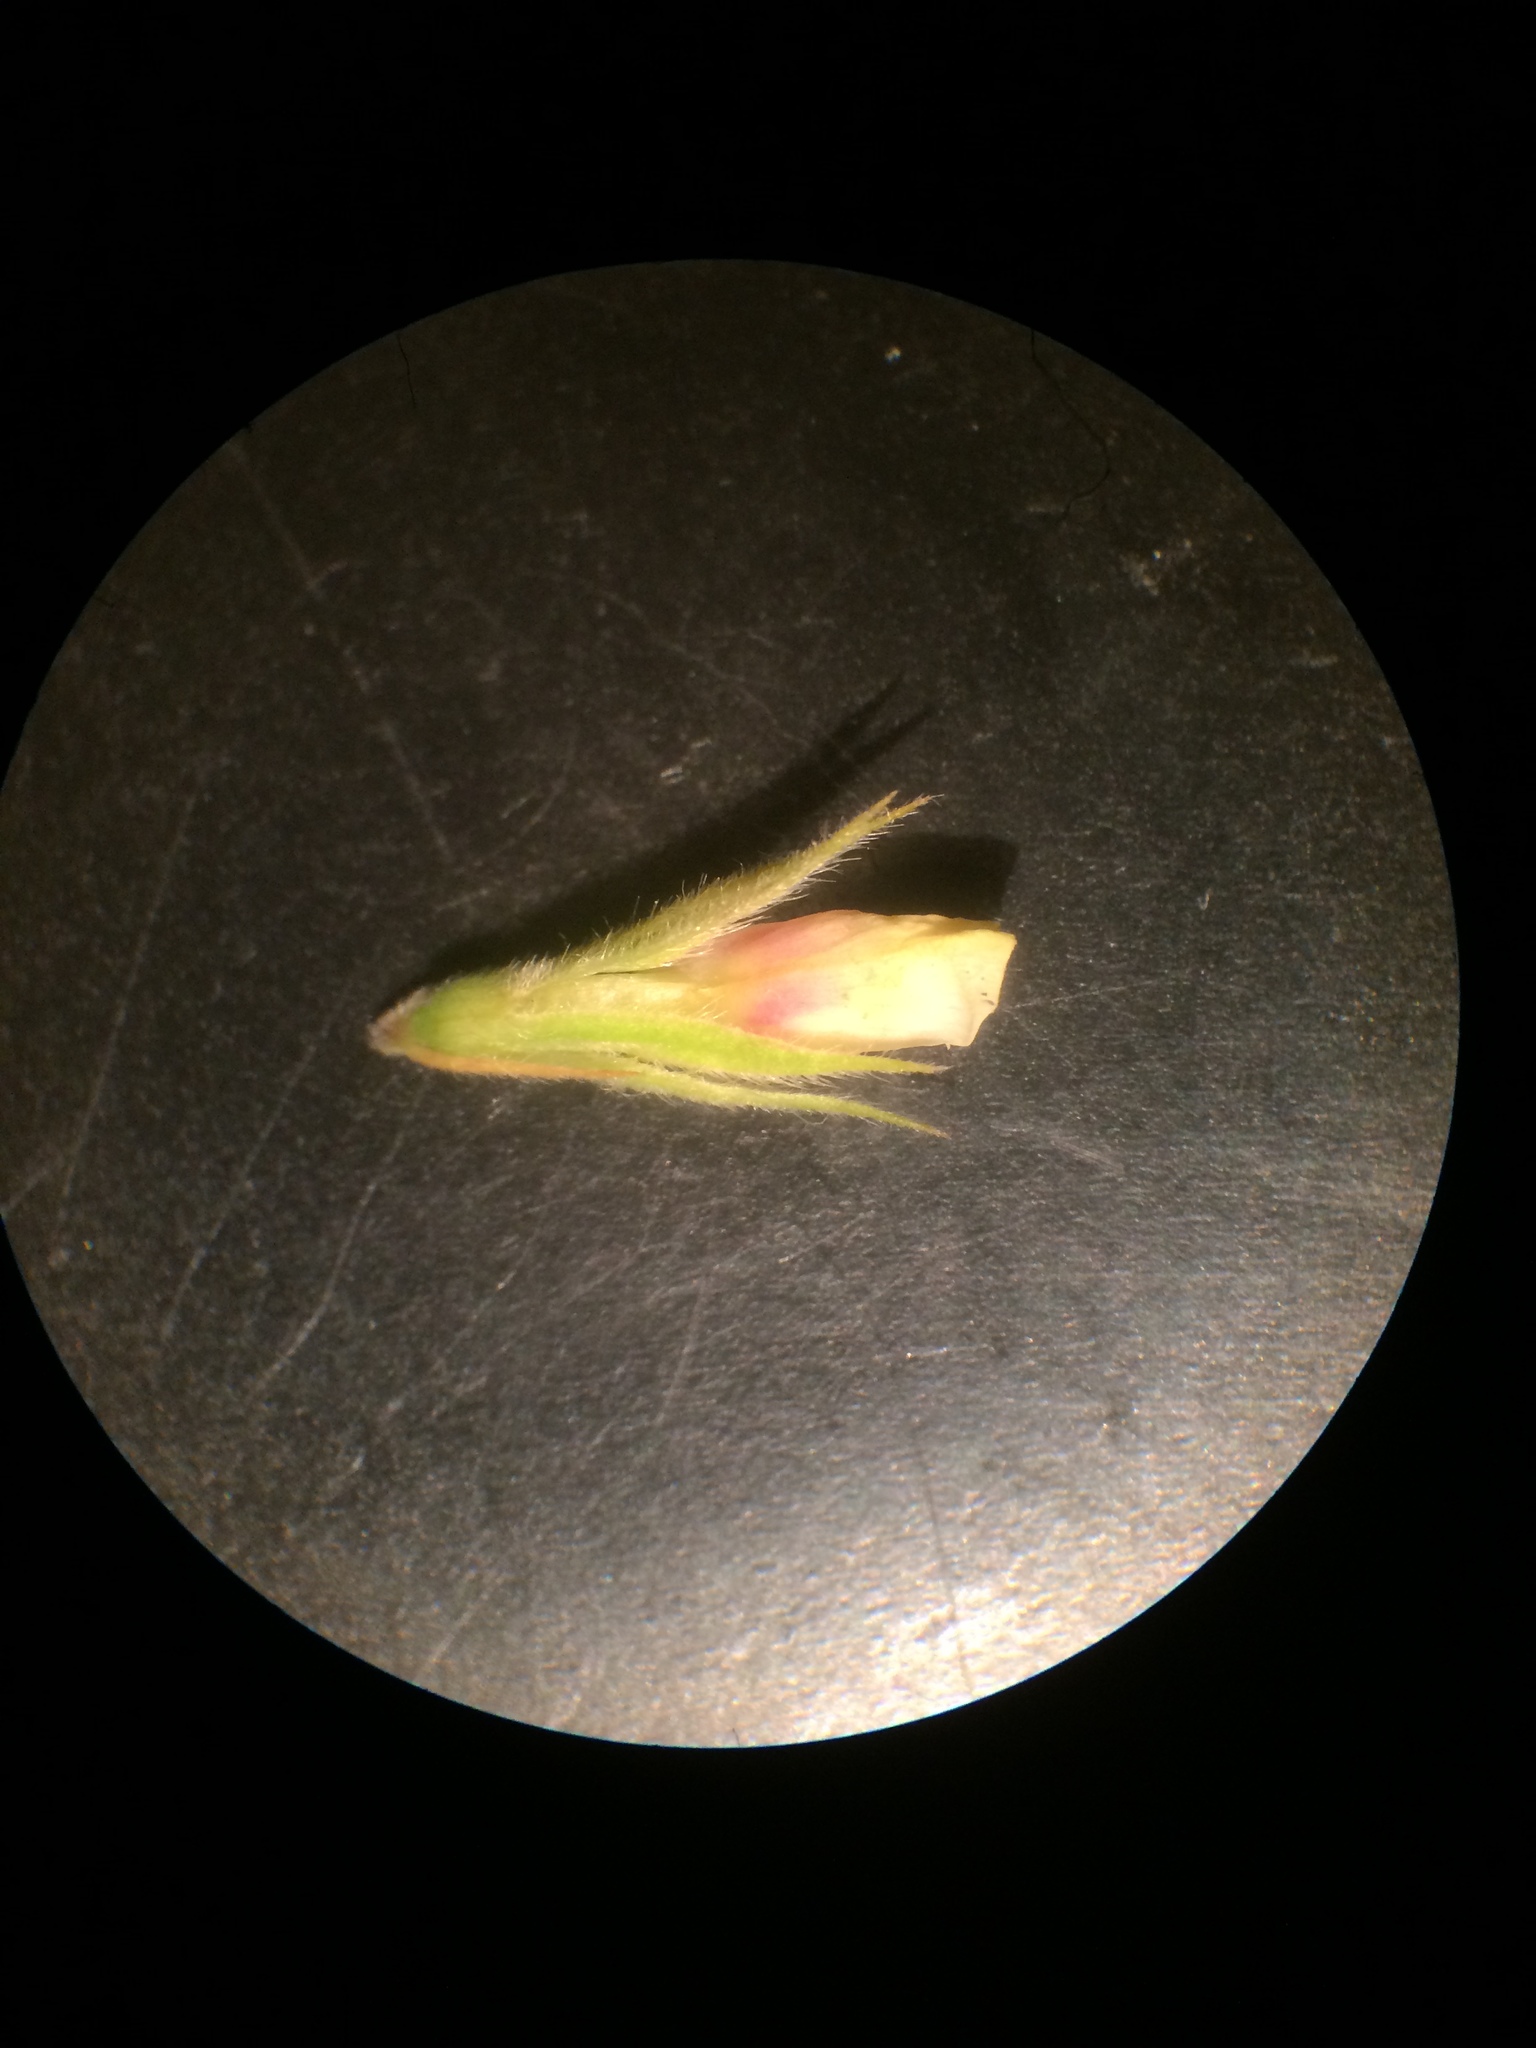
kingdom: Plantae
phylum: Tracheophyta
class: Magnoliopsida
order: Fabales
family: Fabaceae
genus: Lespedeza
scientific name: Lespedeza capitata
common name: Dusty clover
